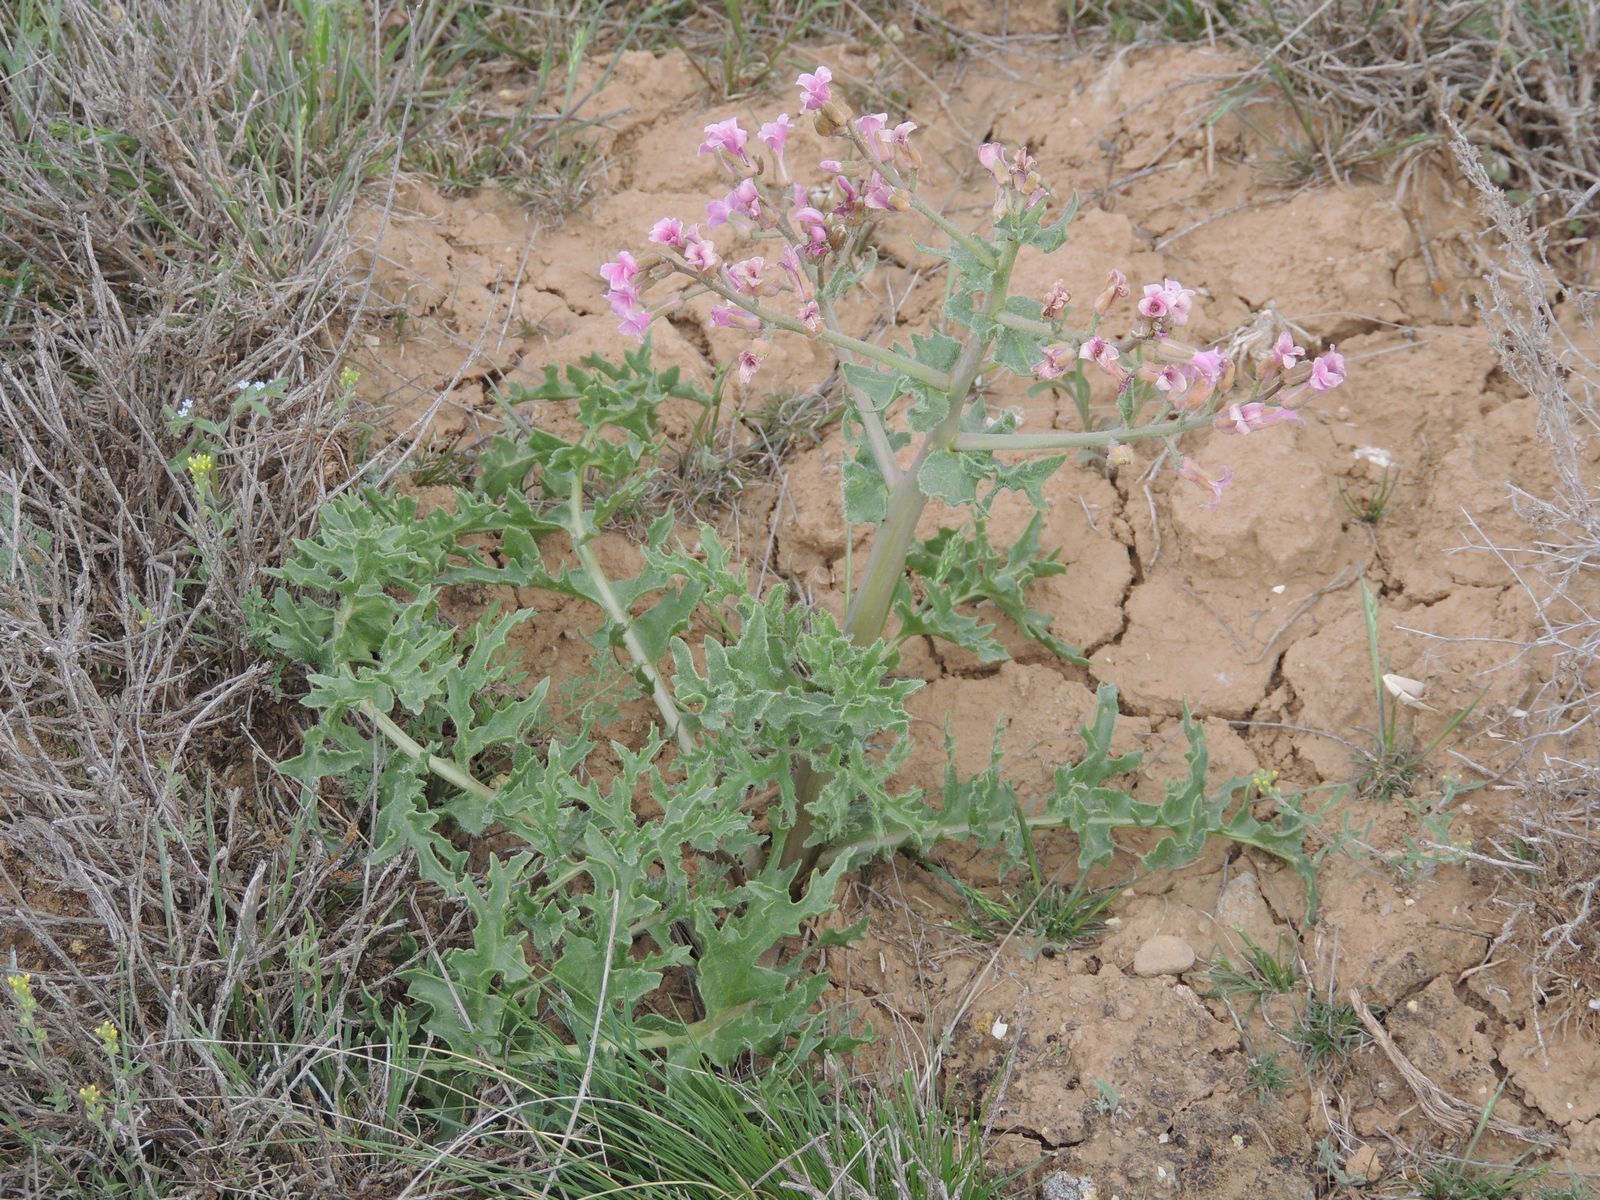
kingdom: Plantae
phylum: Tracheophyta
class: Magnoliopsida
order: Brassicales
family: Brassicaceae
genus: Megacarpaea
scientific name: Megacarpaea megalocarpa
